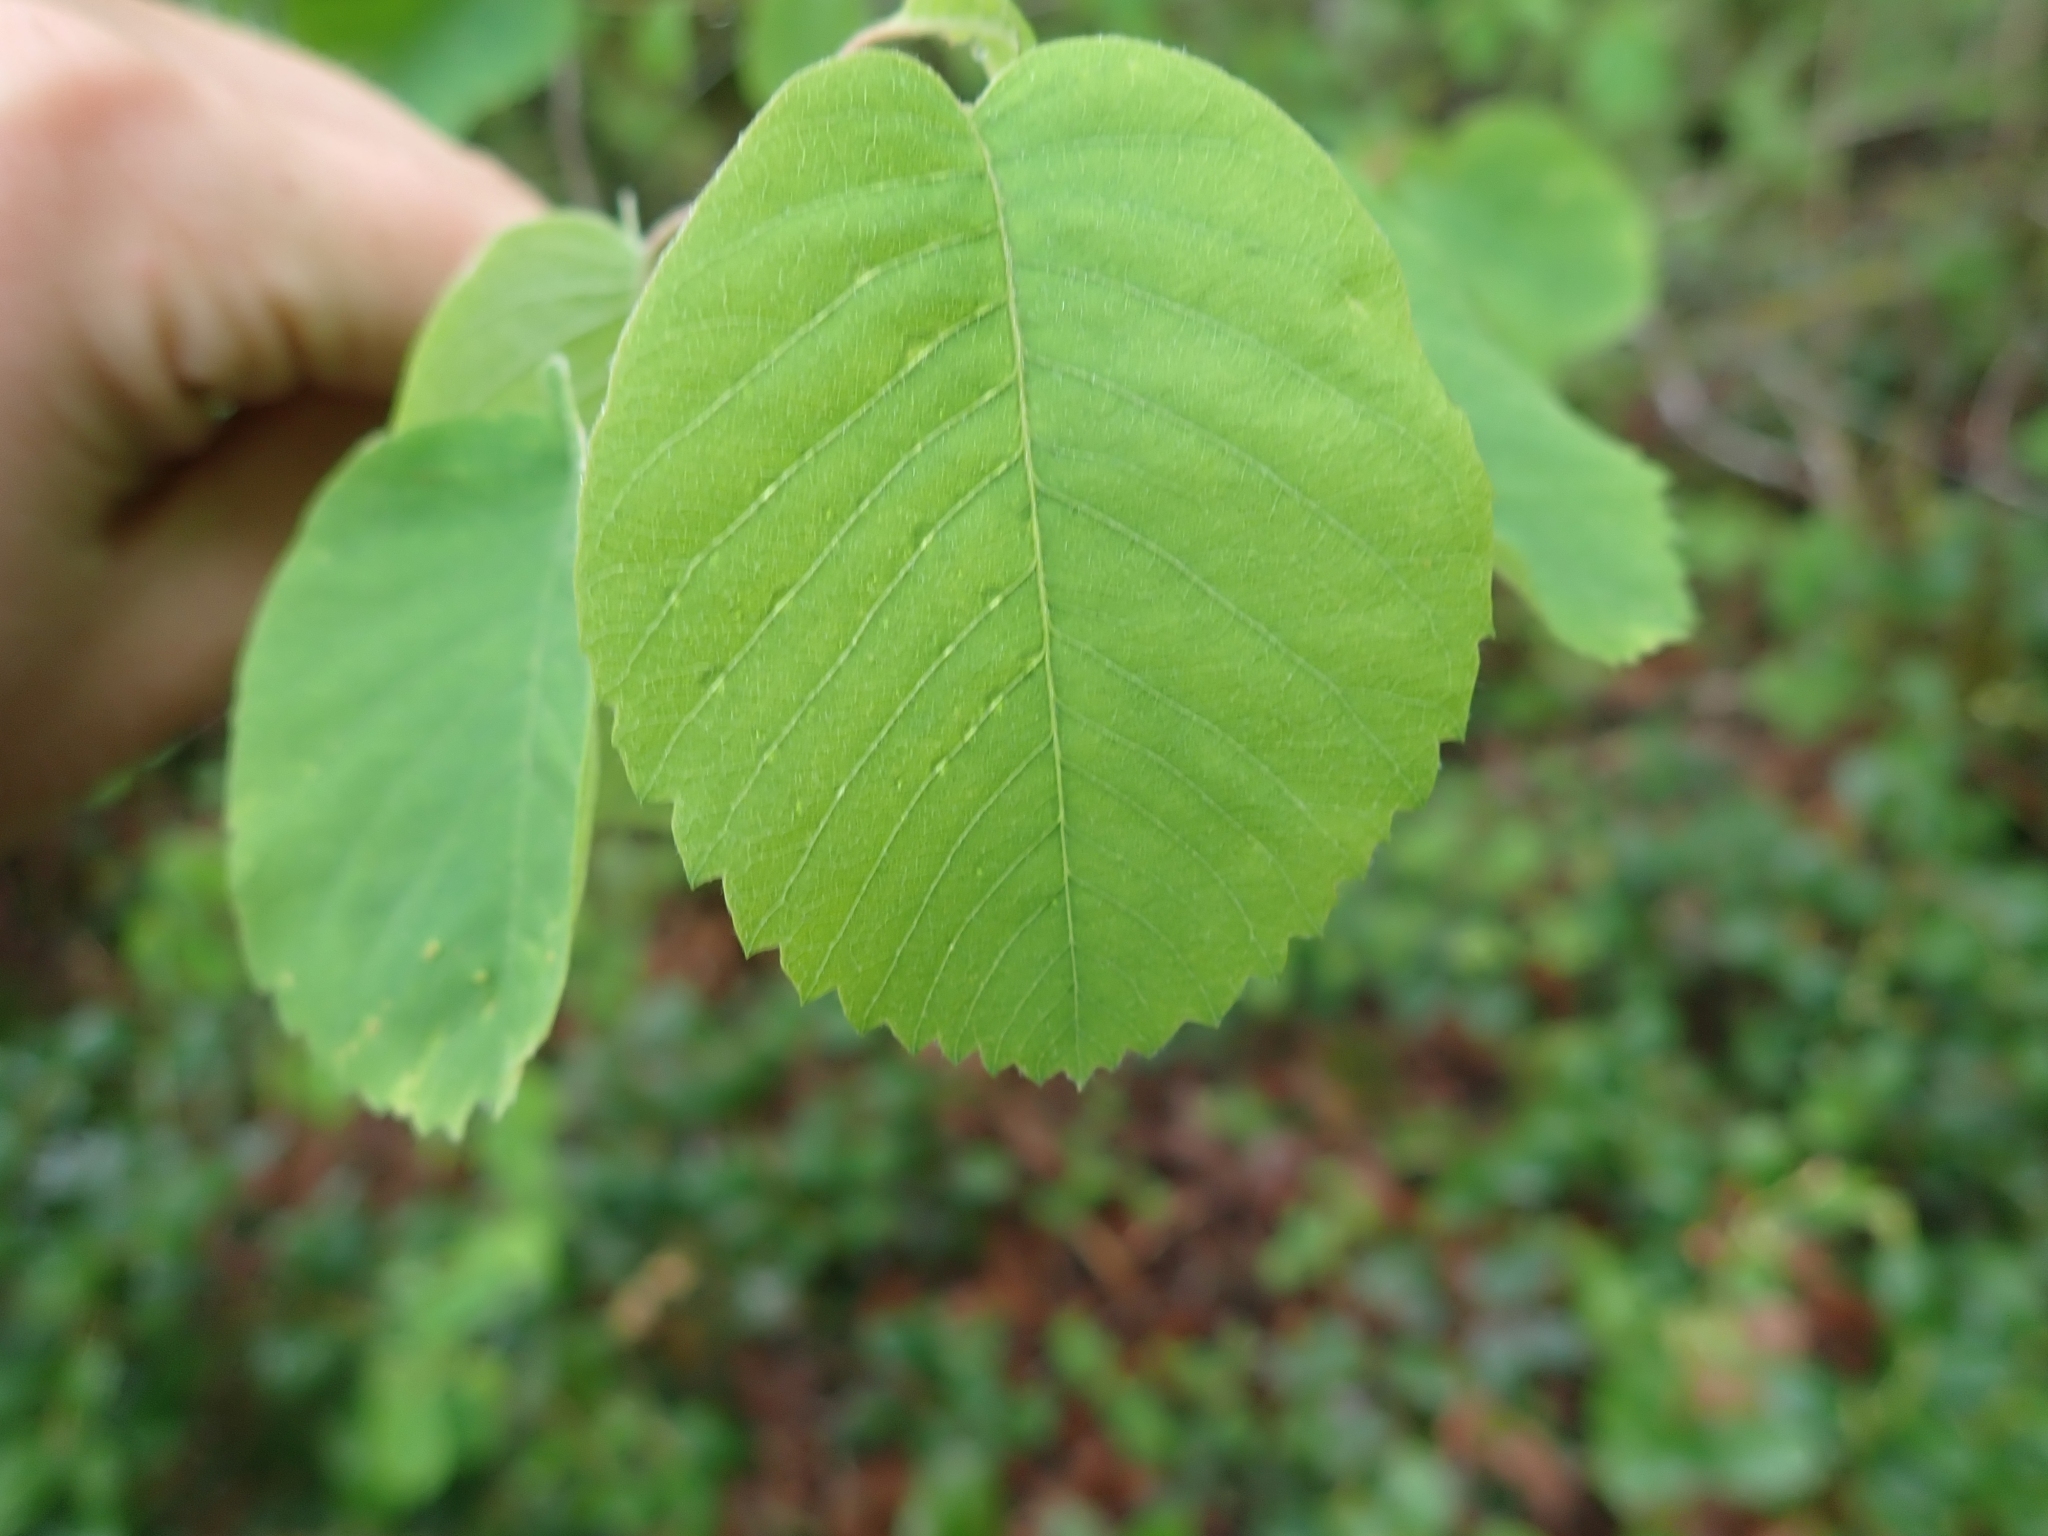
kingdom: Plantae
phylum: Tracheophyta
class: Magnoliopsida
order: Rosales
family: Rosaceae
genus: Amelanchier
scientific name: Amelanchier alnifolia
